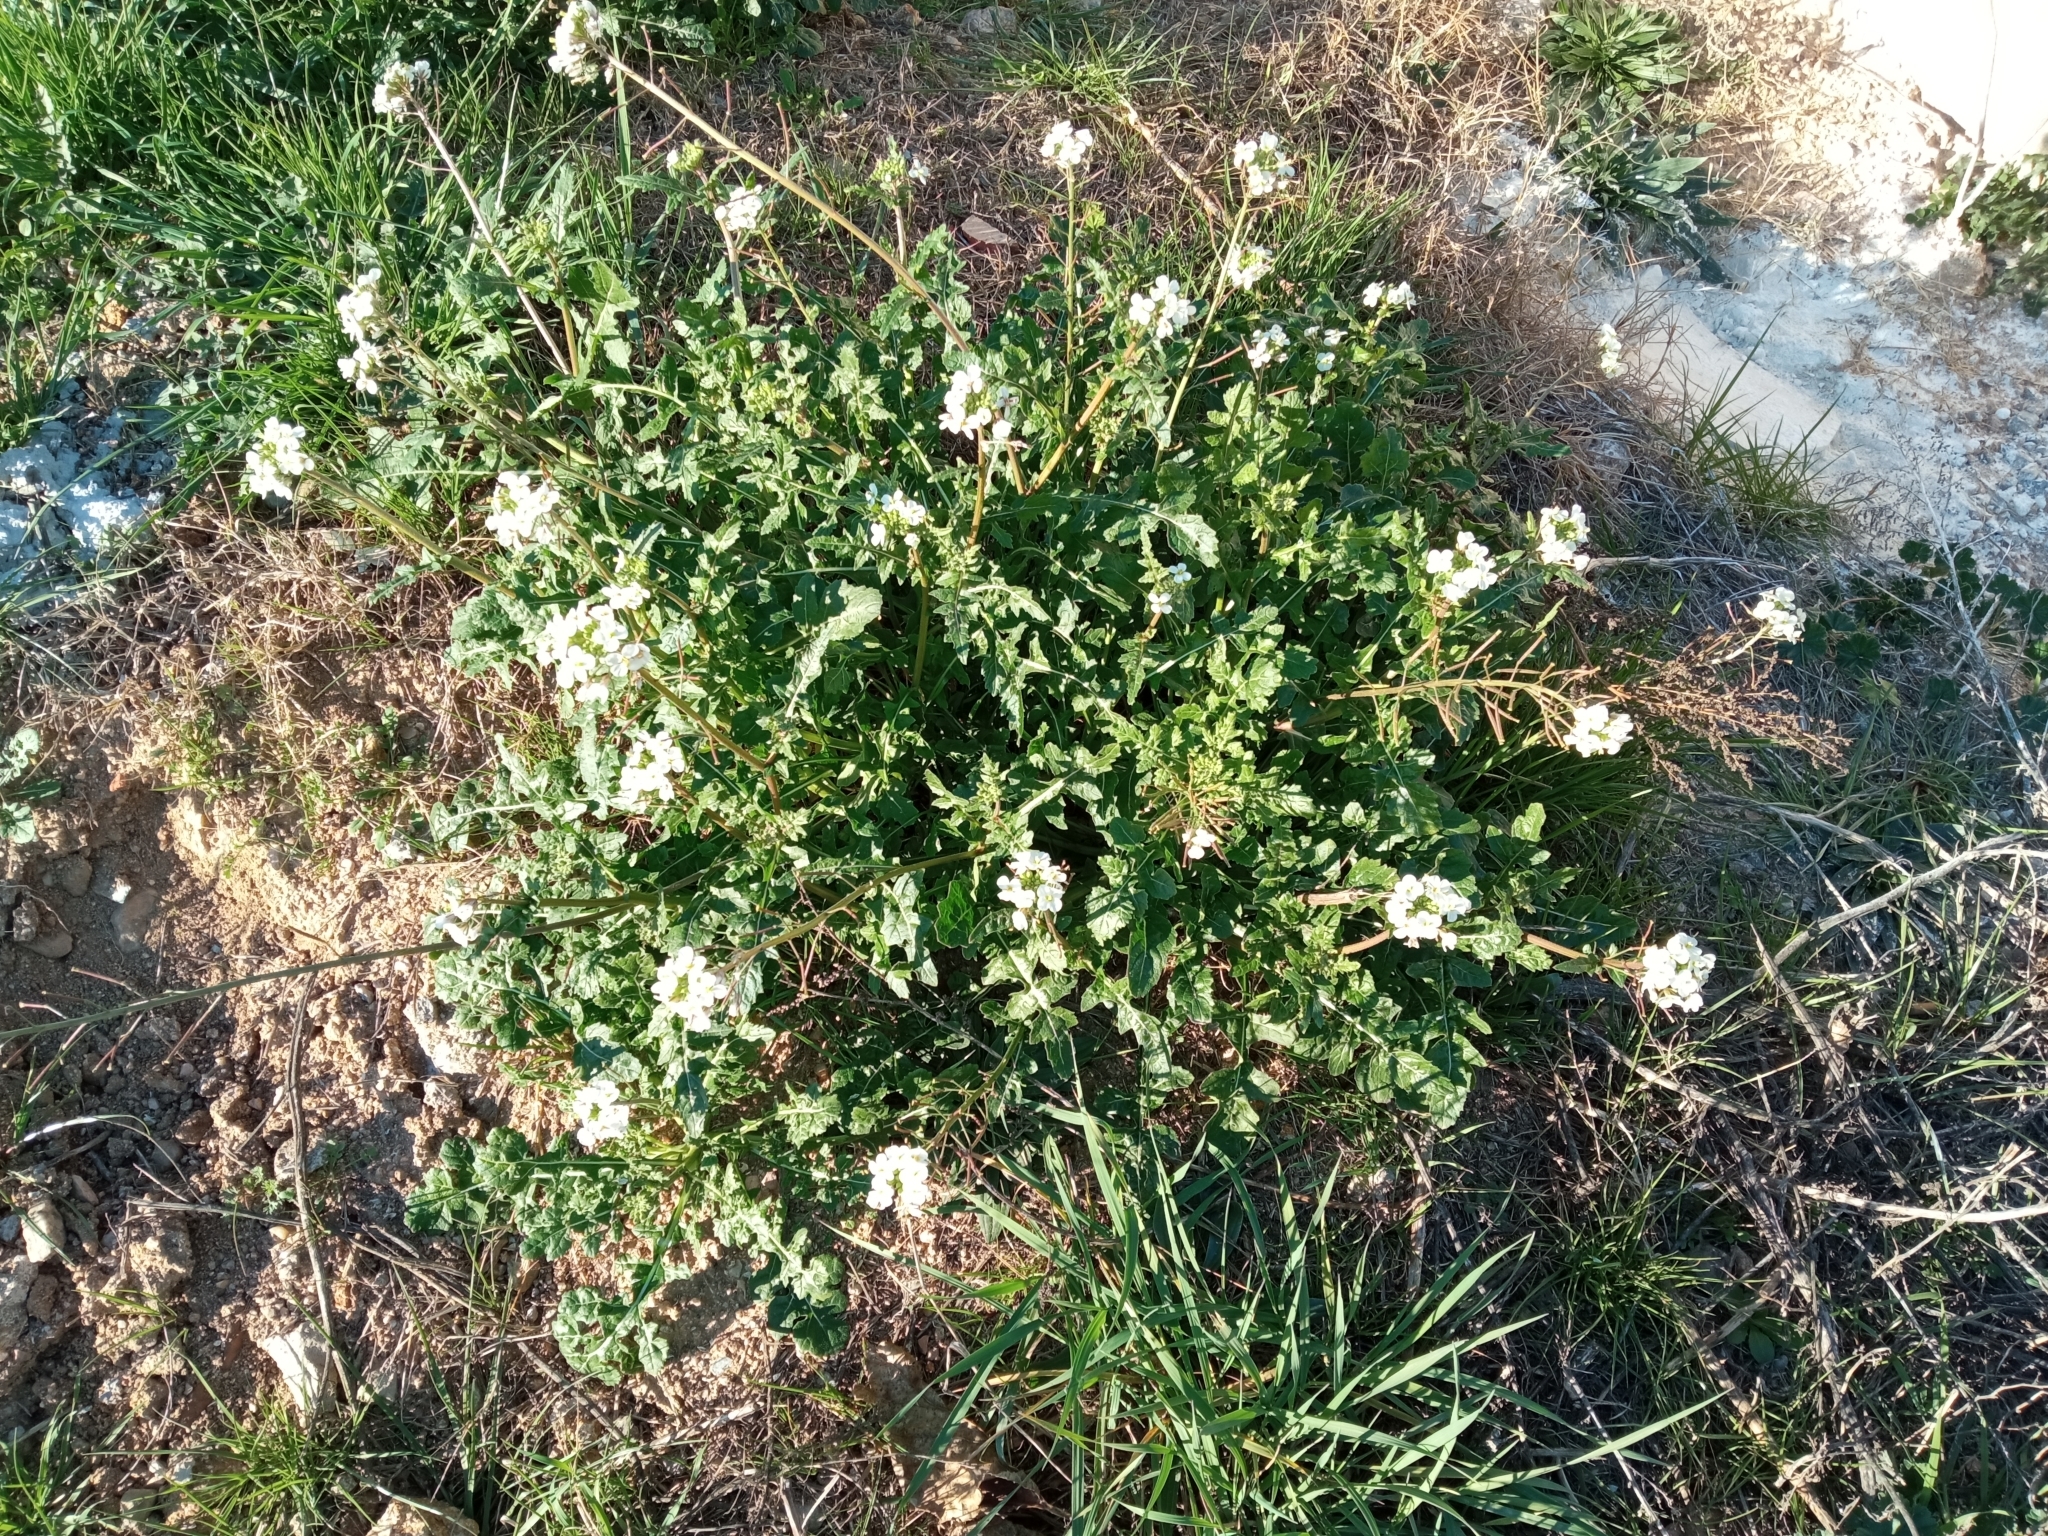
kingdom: Plantae
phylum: Tracheophyta
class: Magnoliopsida
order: Brassicales
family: Brassicaceae
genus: Diplotaxis
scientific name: Diplotaxis erucoides
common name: White rocket
